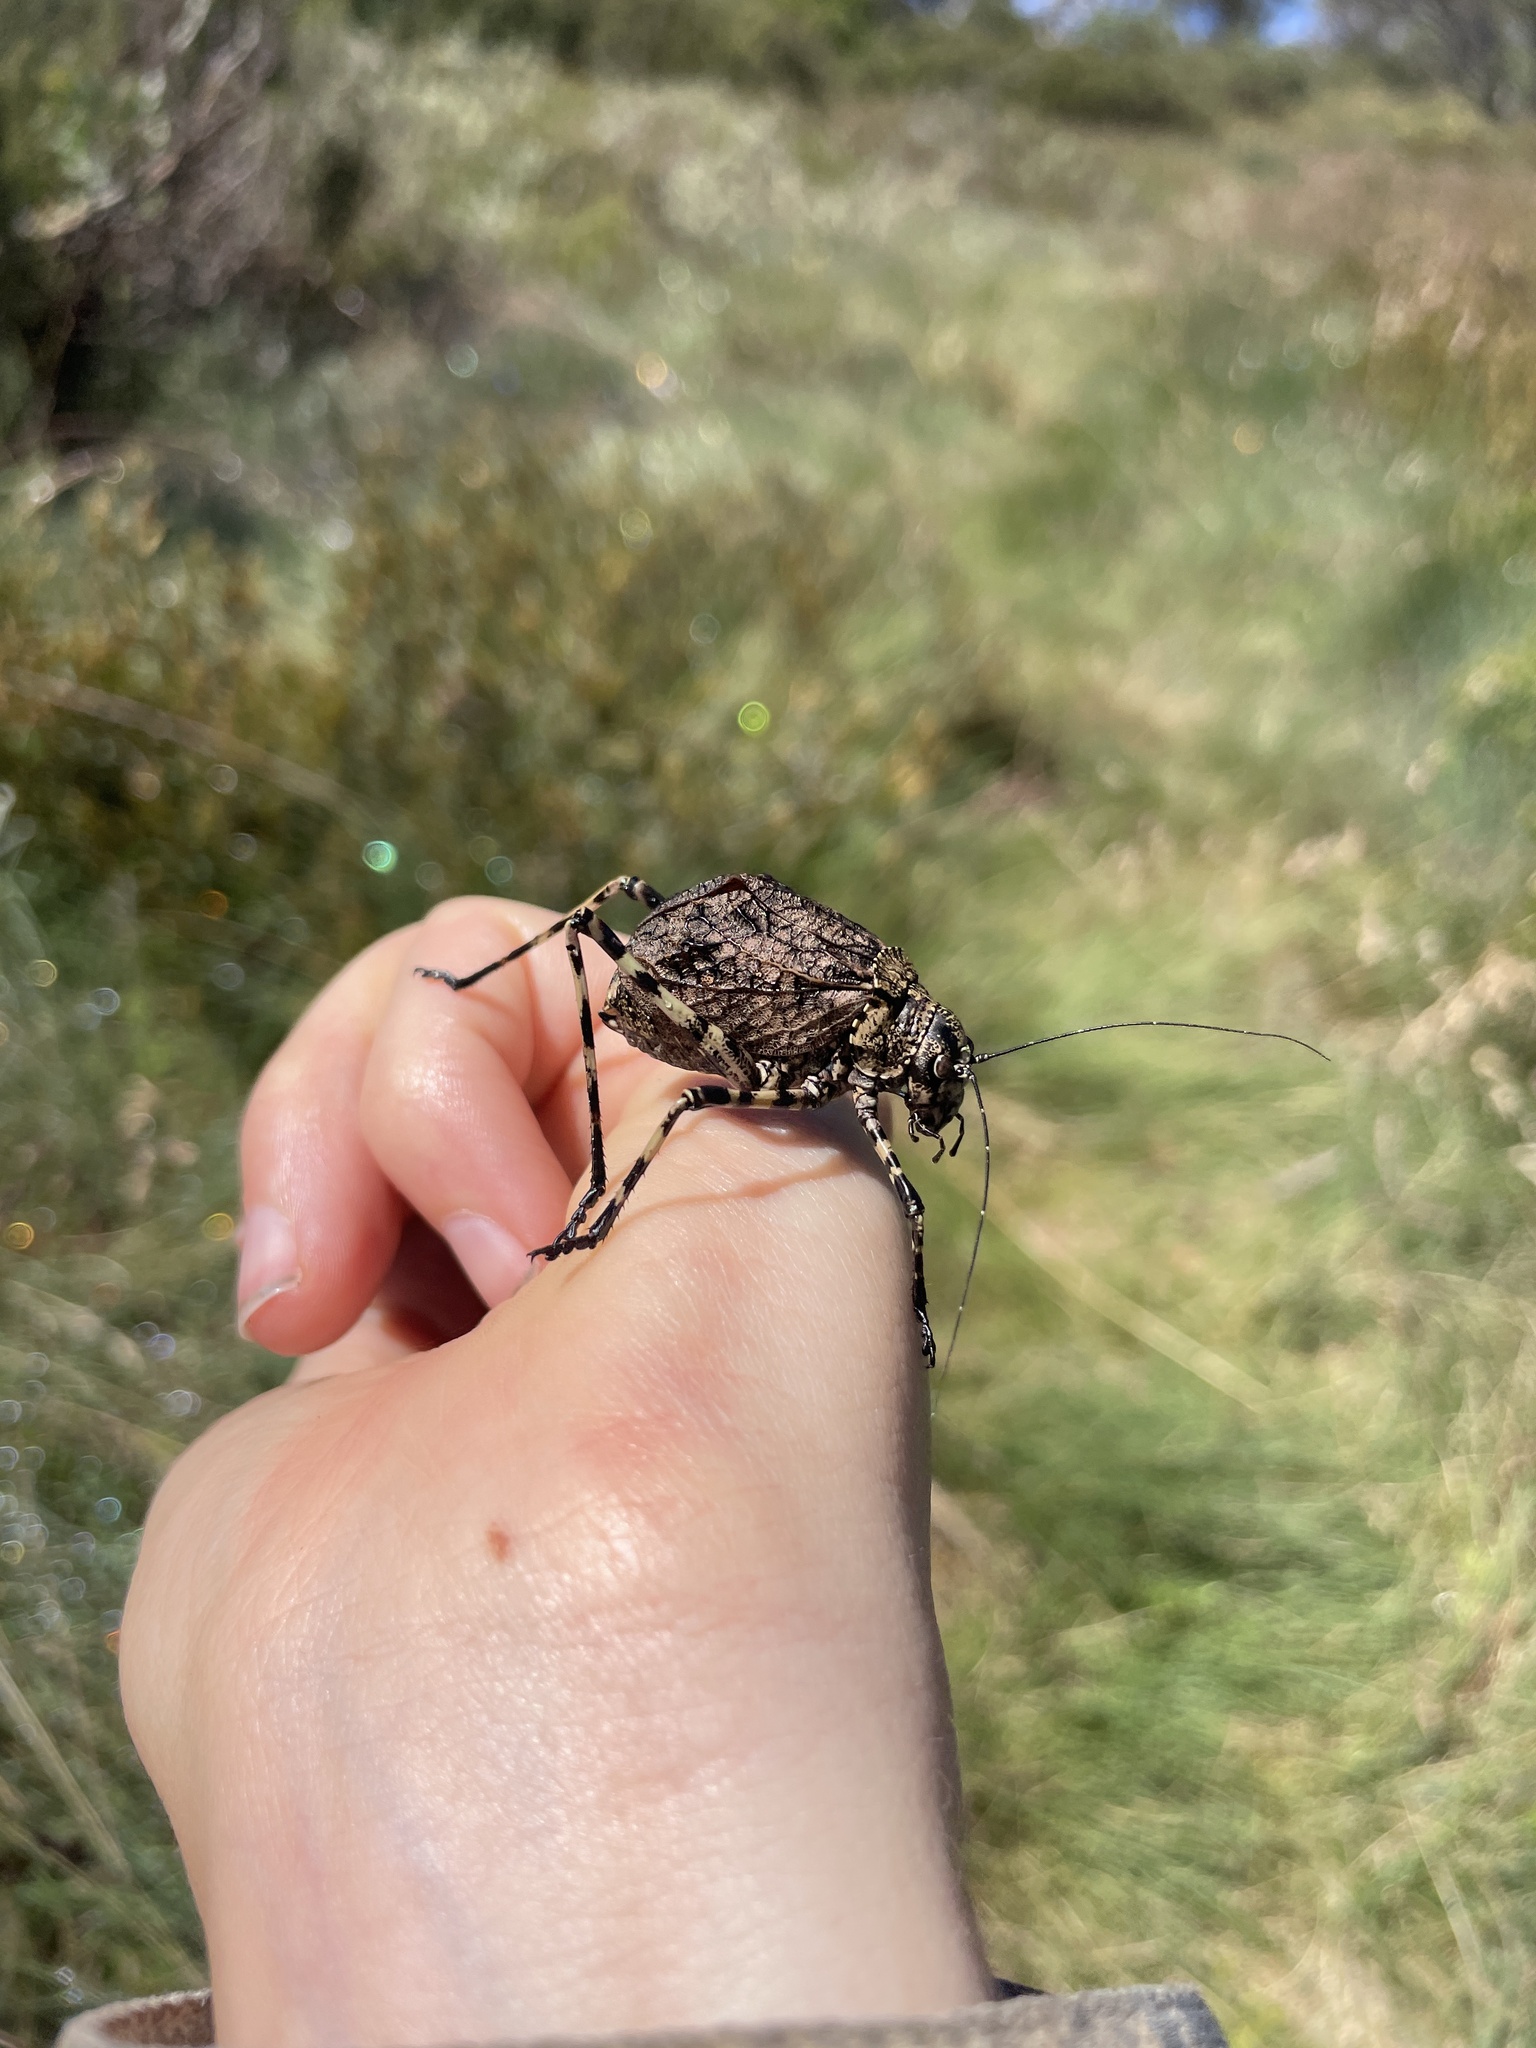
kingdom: Animalia
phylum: Arthropoda
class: Insecta
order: Orthoptera
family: Tettigoniidae
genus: Acripeza
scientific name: Acripeza reticulata
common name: Mountain katydid
